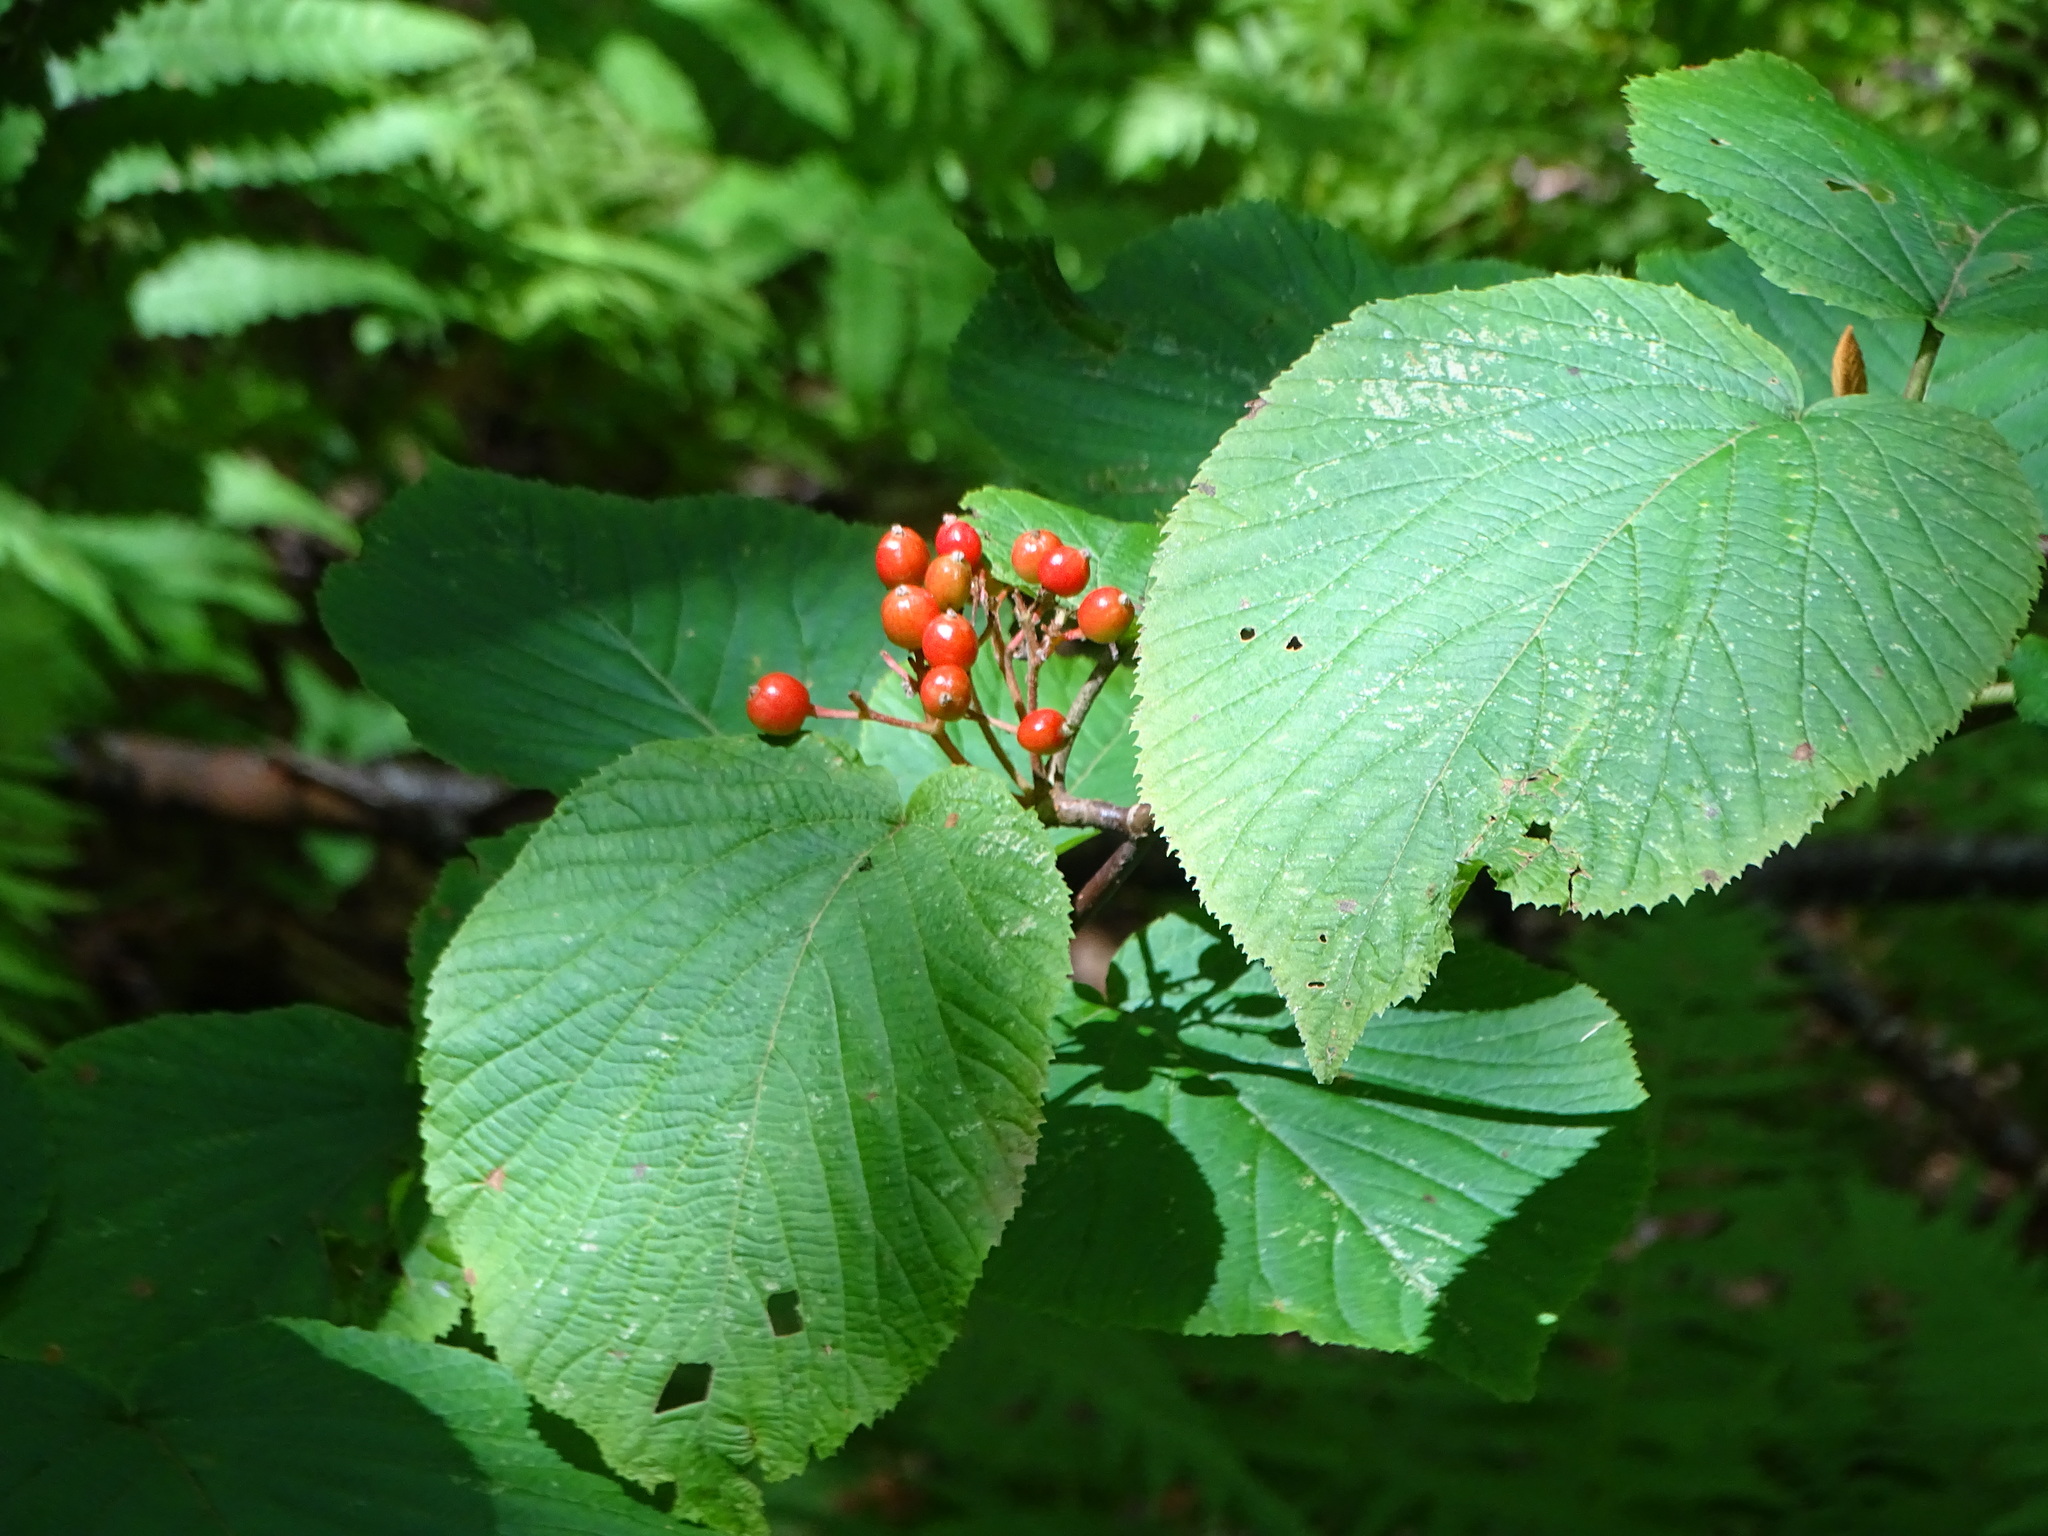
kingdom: Plantae
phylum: Tracheophyta
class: Magnoliopsida
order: Dipsacales
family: Viburnaceae
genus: Viburnum
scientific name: Viburnum lantanoides
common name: Hobblebush
